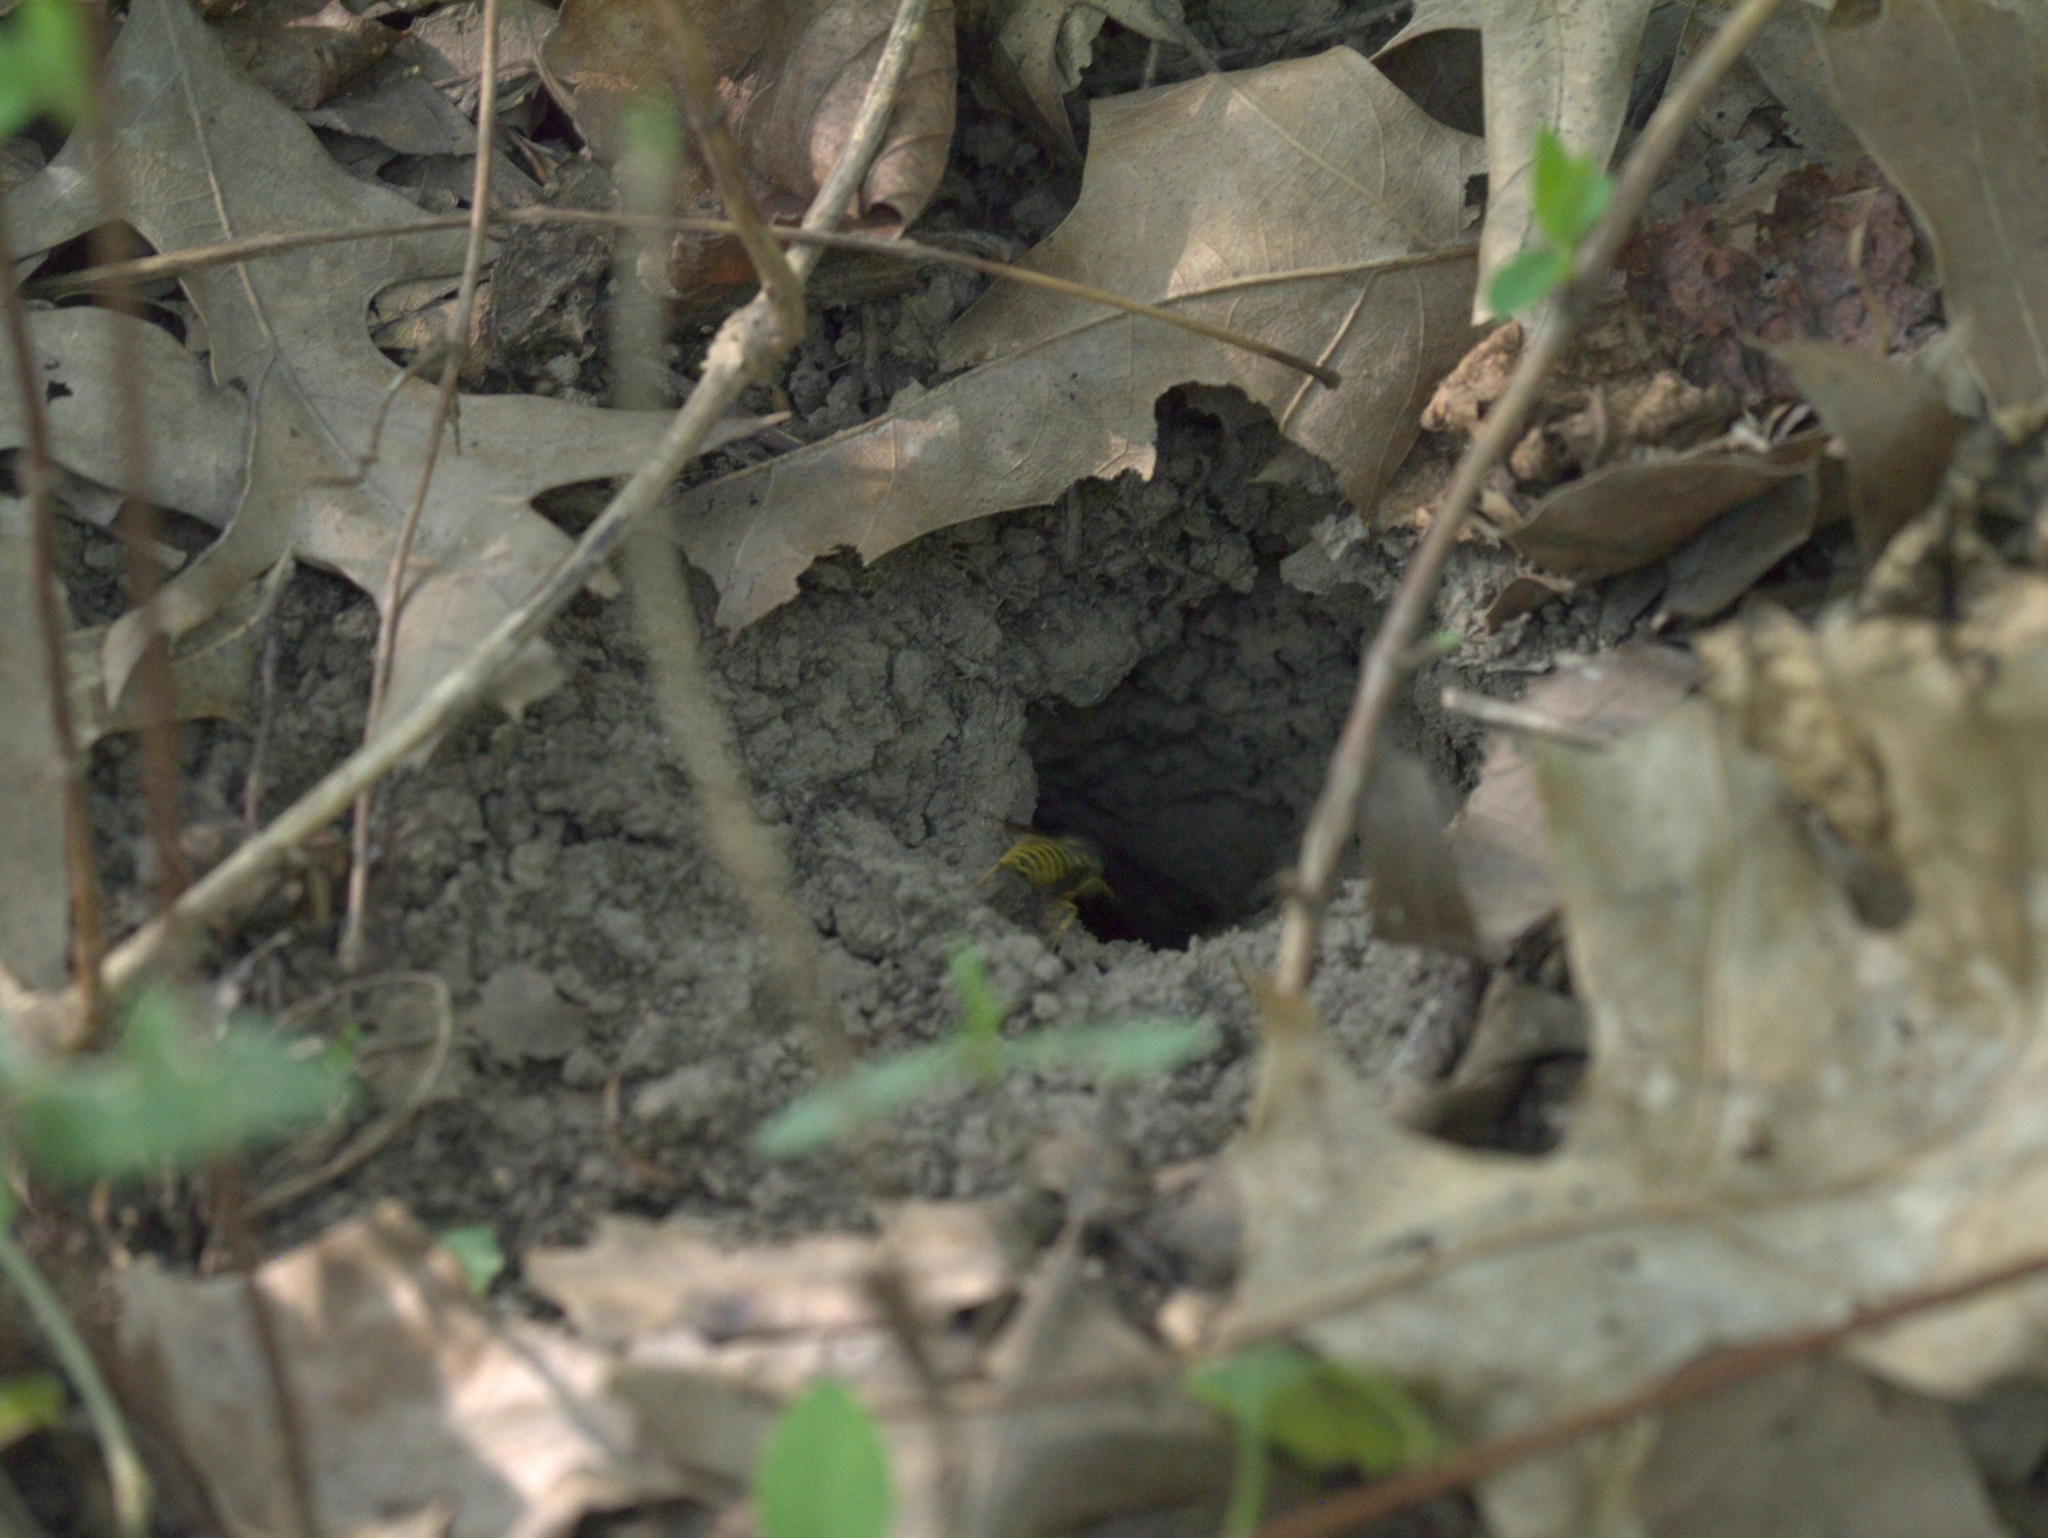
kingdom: Animalia
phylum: Arthropoda
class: Insecta
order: Hymenoptera
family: Vespidae
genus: Vespula
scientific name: Vespula maculifrons
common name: Eastern yellowjacket
